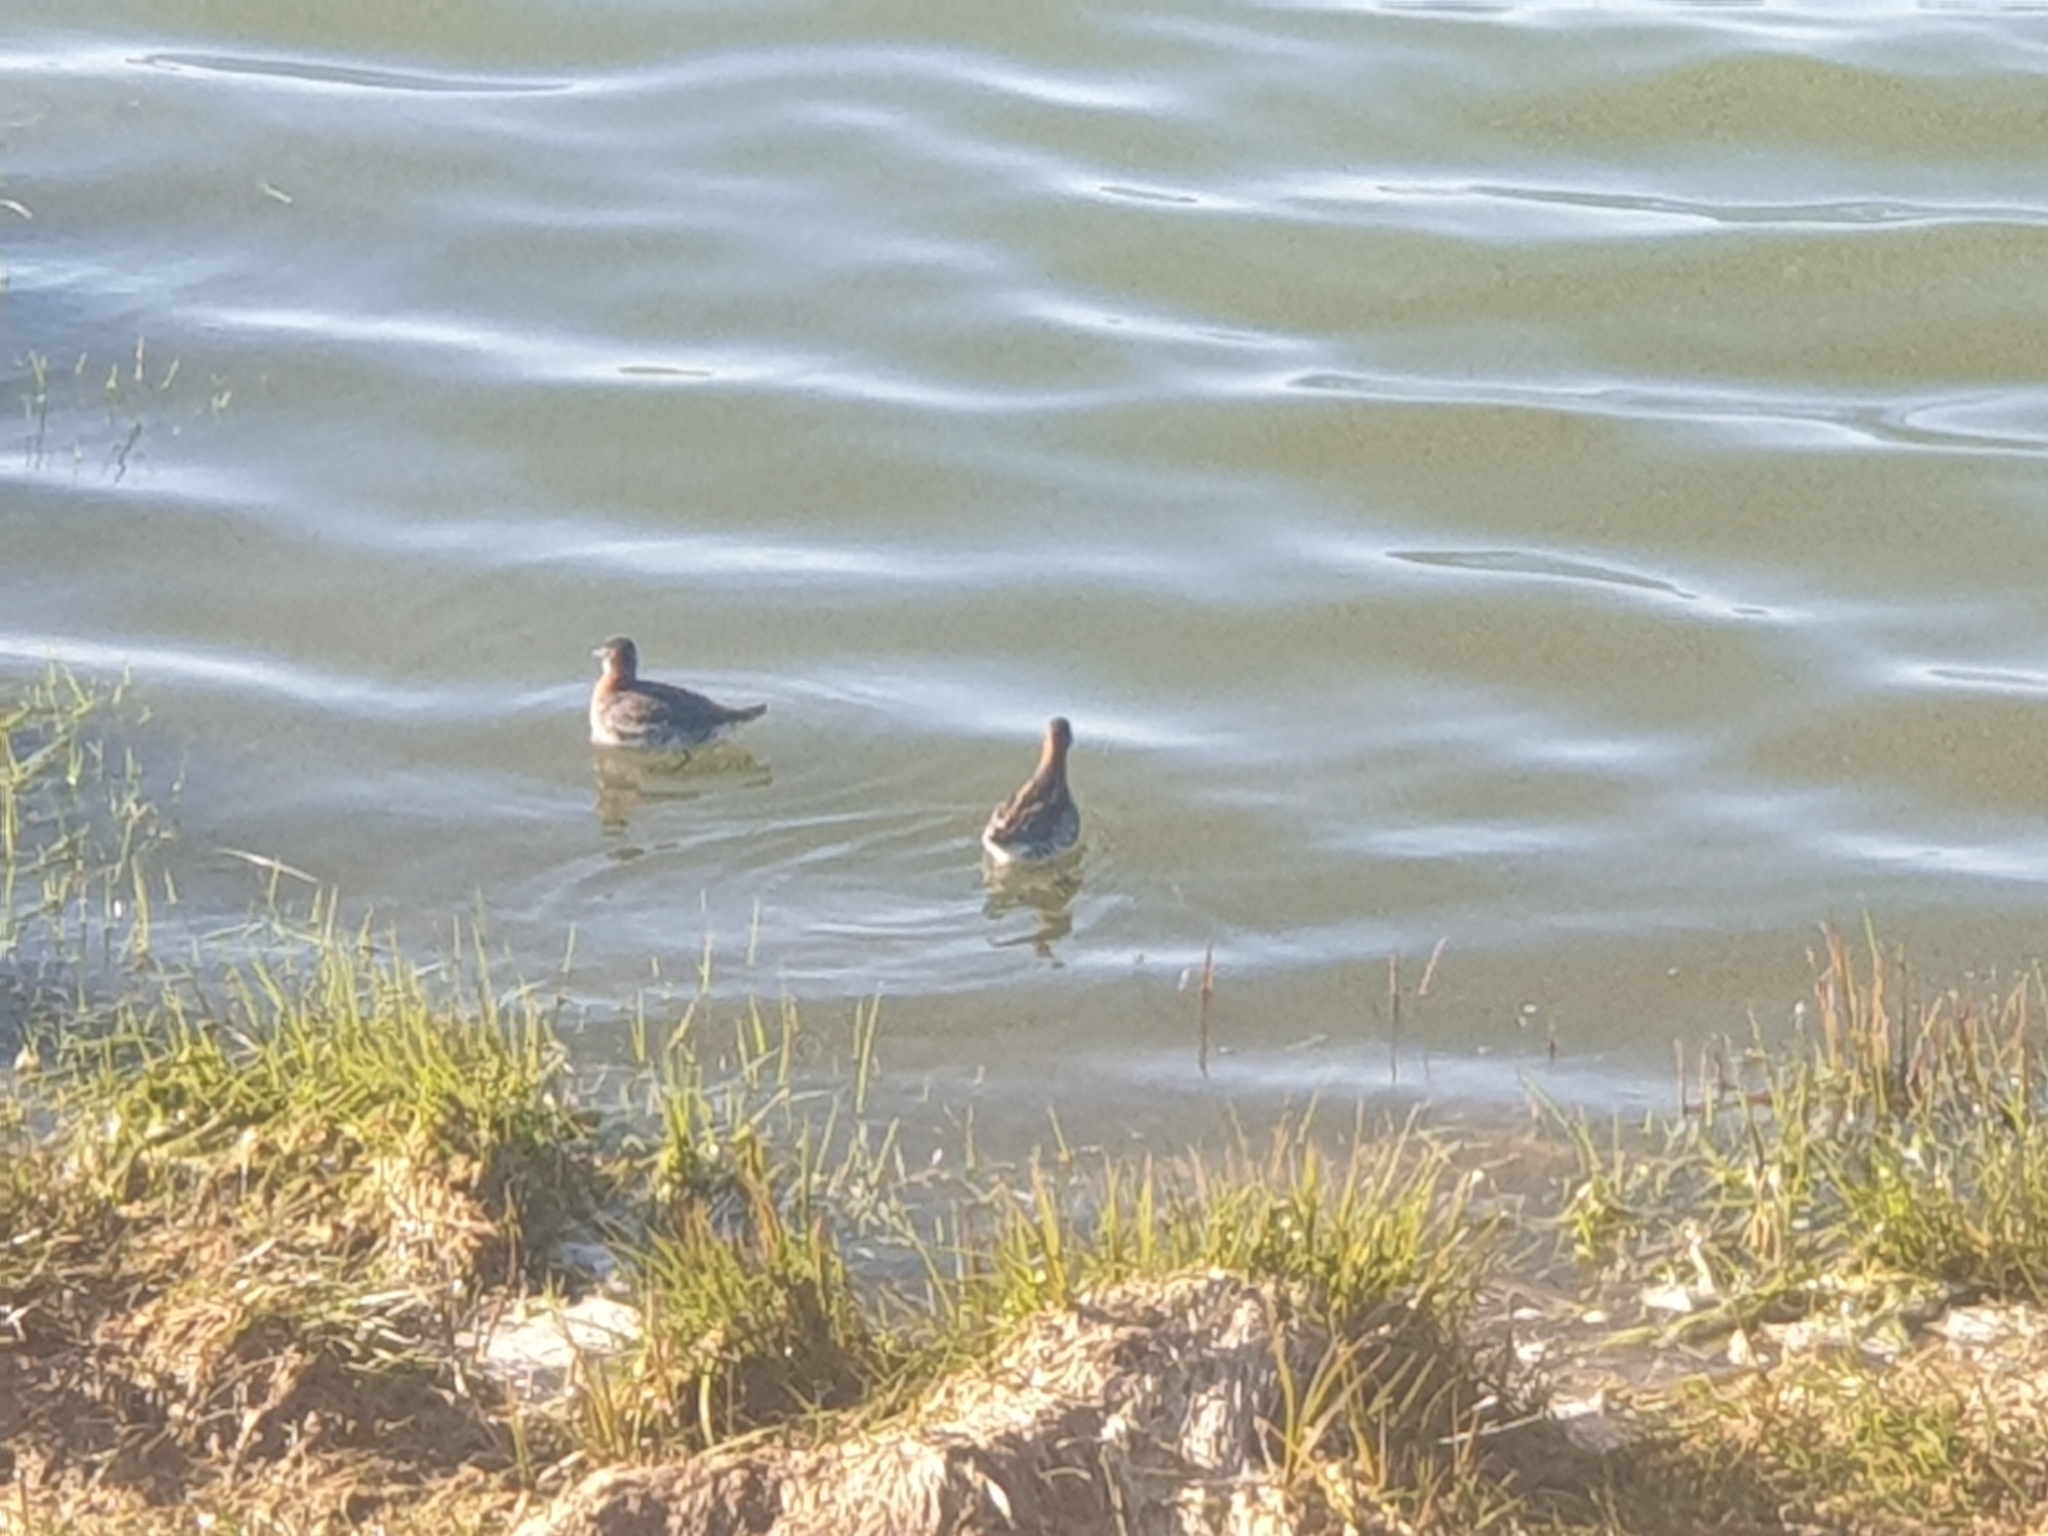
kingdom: Animalia
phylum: Chordata
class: Aves
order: Charadriiformes
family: Scolopacidae
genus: Phalaropus
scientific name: Phalaropus lobatus
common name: Red-necked phalarope
